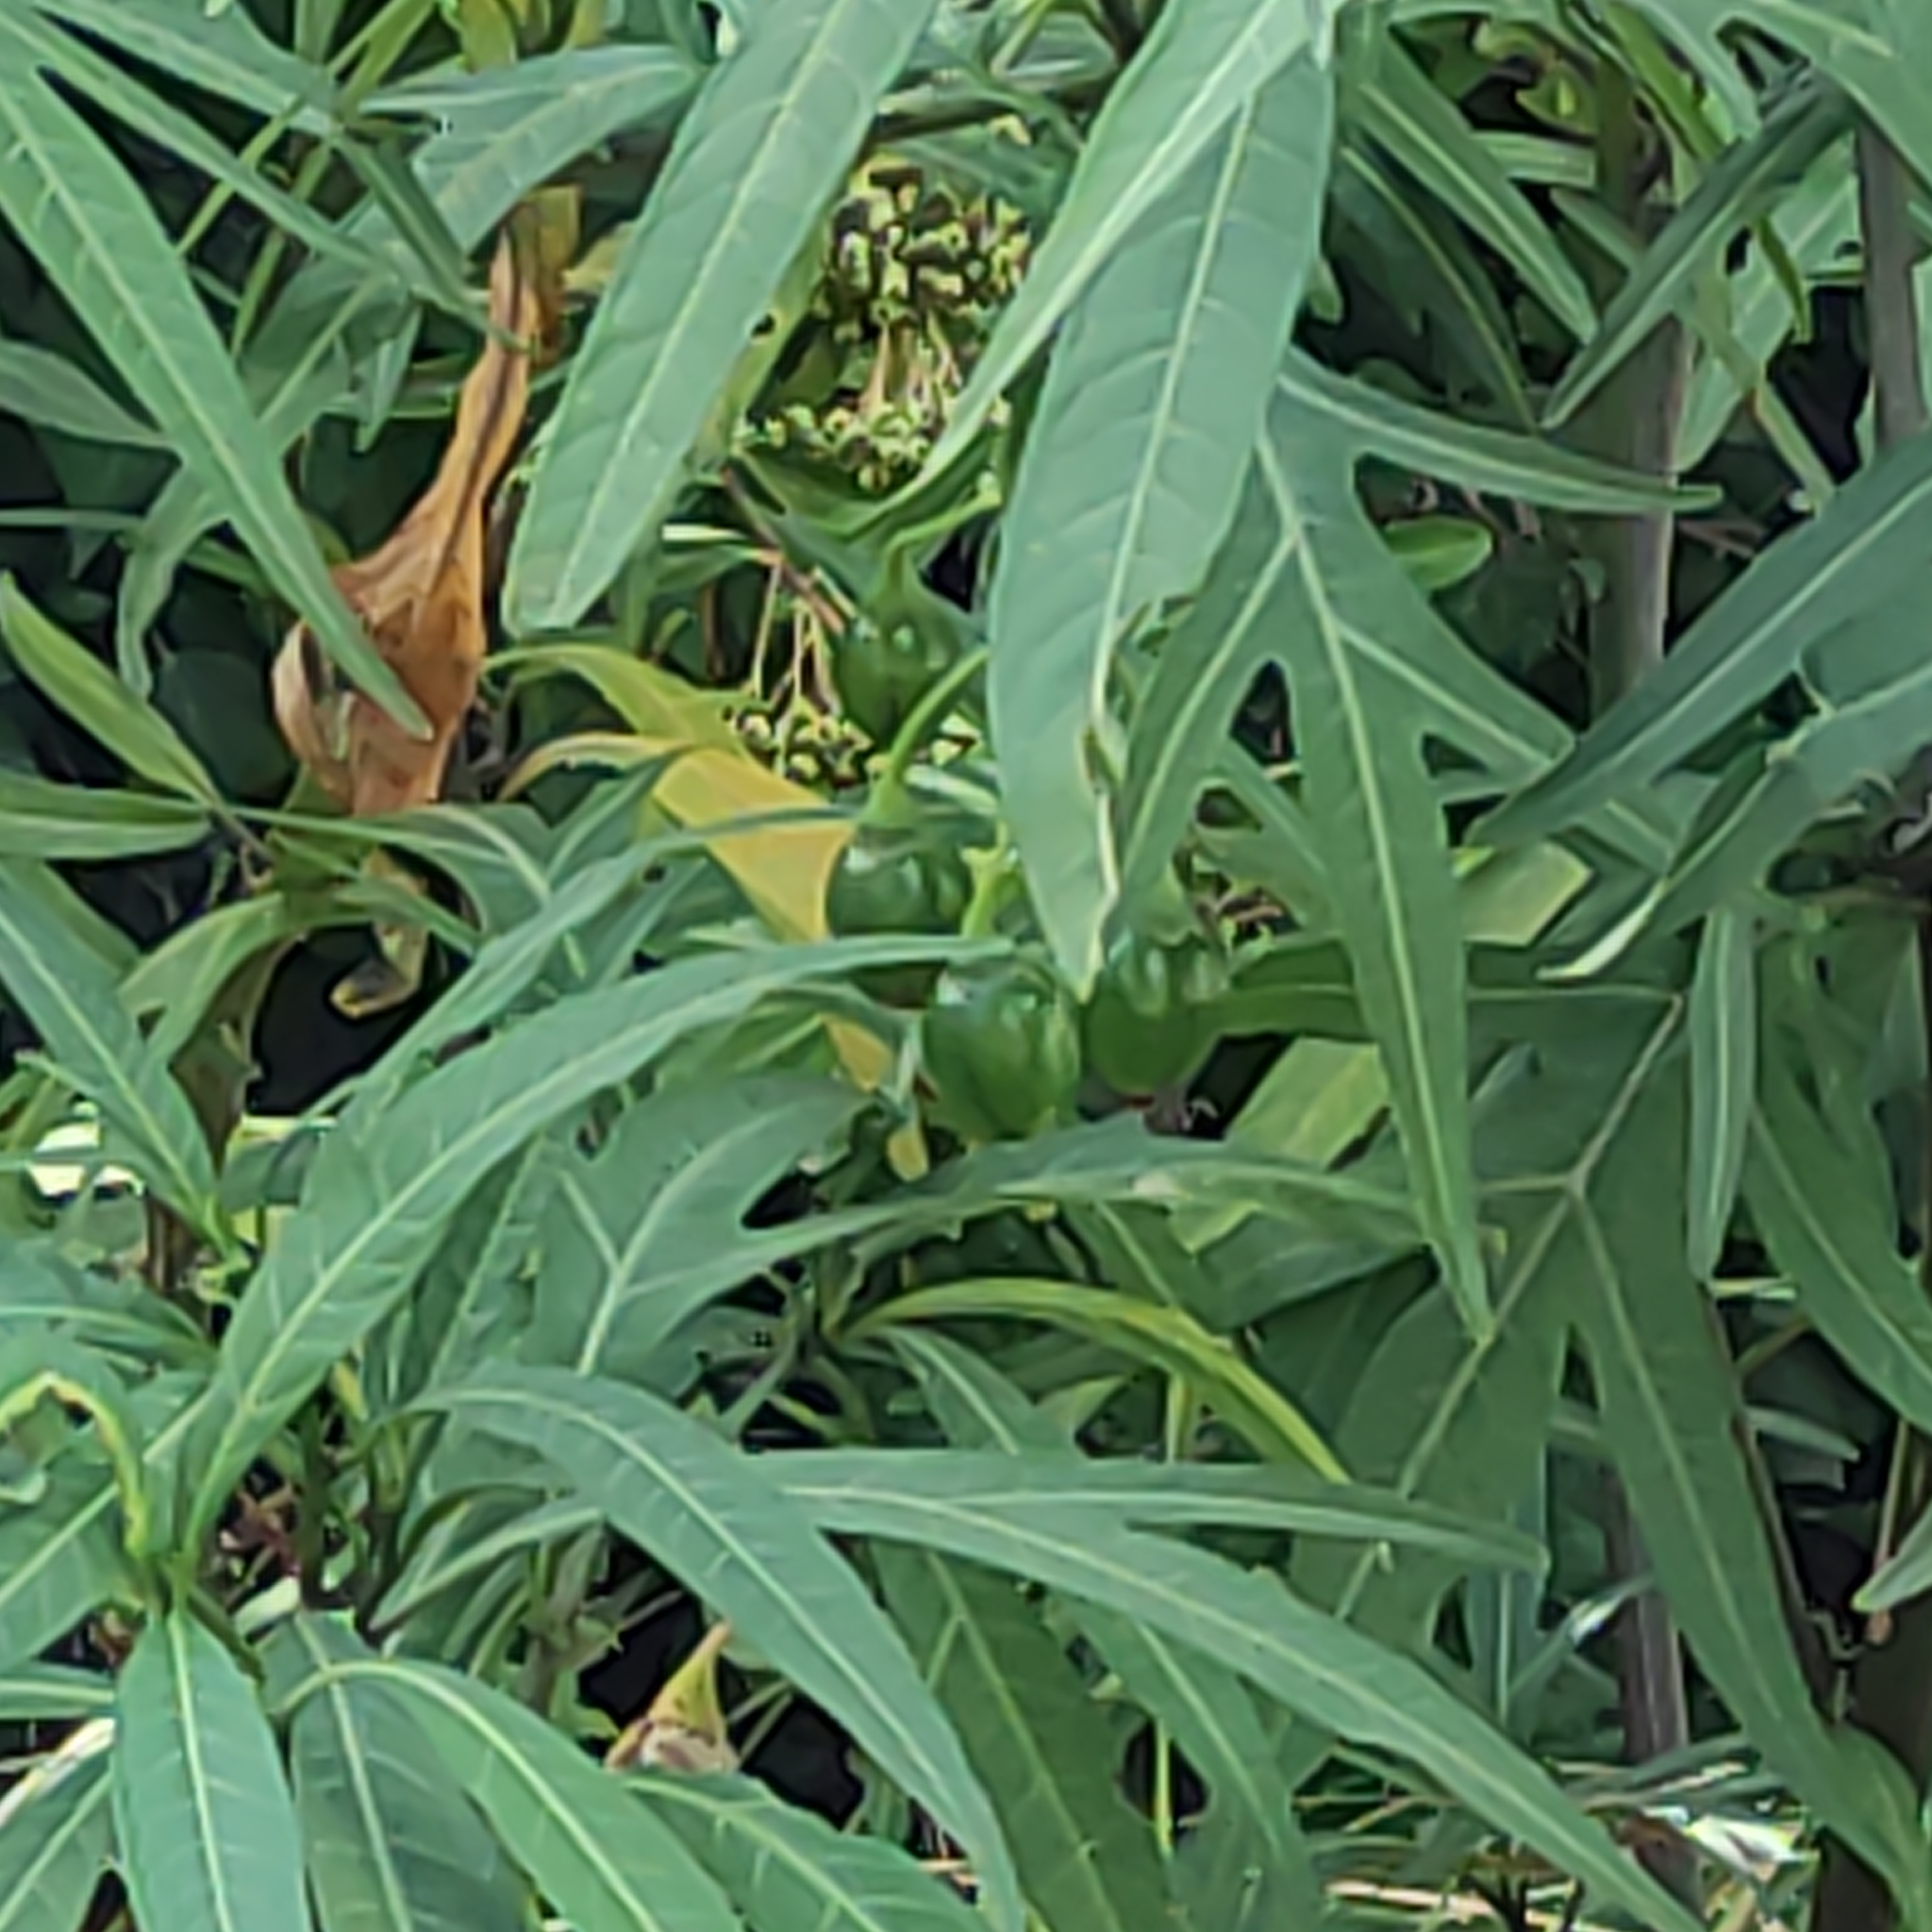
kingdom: Plantae
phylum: Tracheophyta
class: Magnoliopsida
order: Solanales
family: Solanaceae
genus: Solanum
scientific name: Solanum laciniatum
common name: Kangaroo-apple
